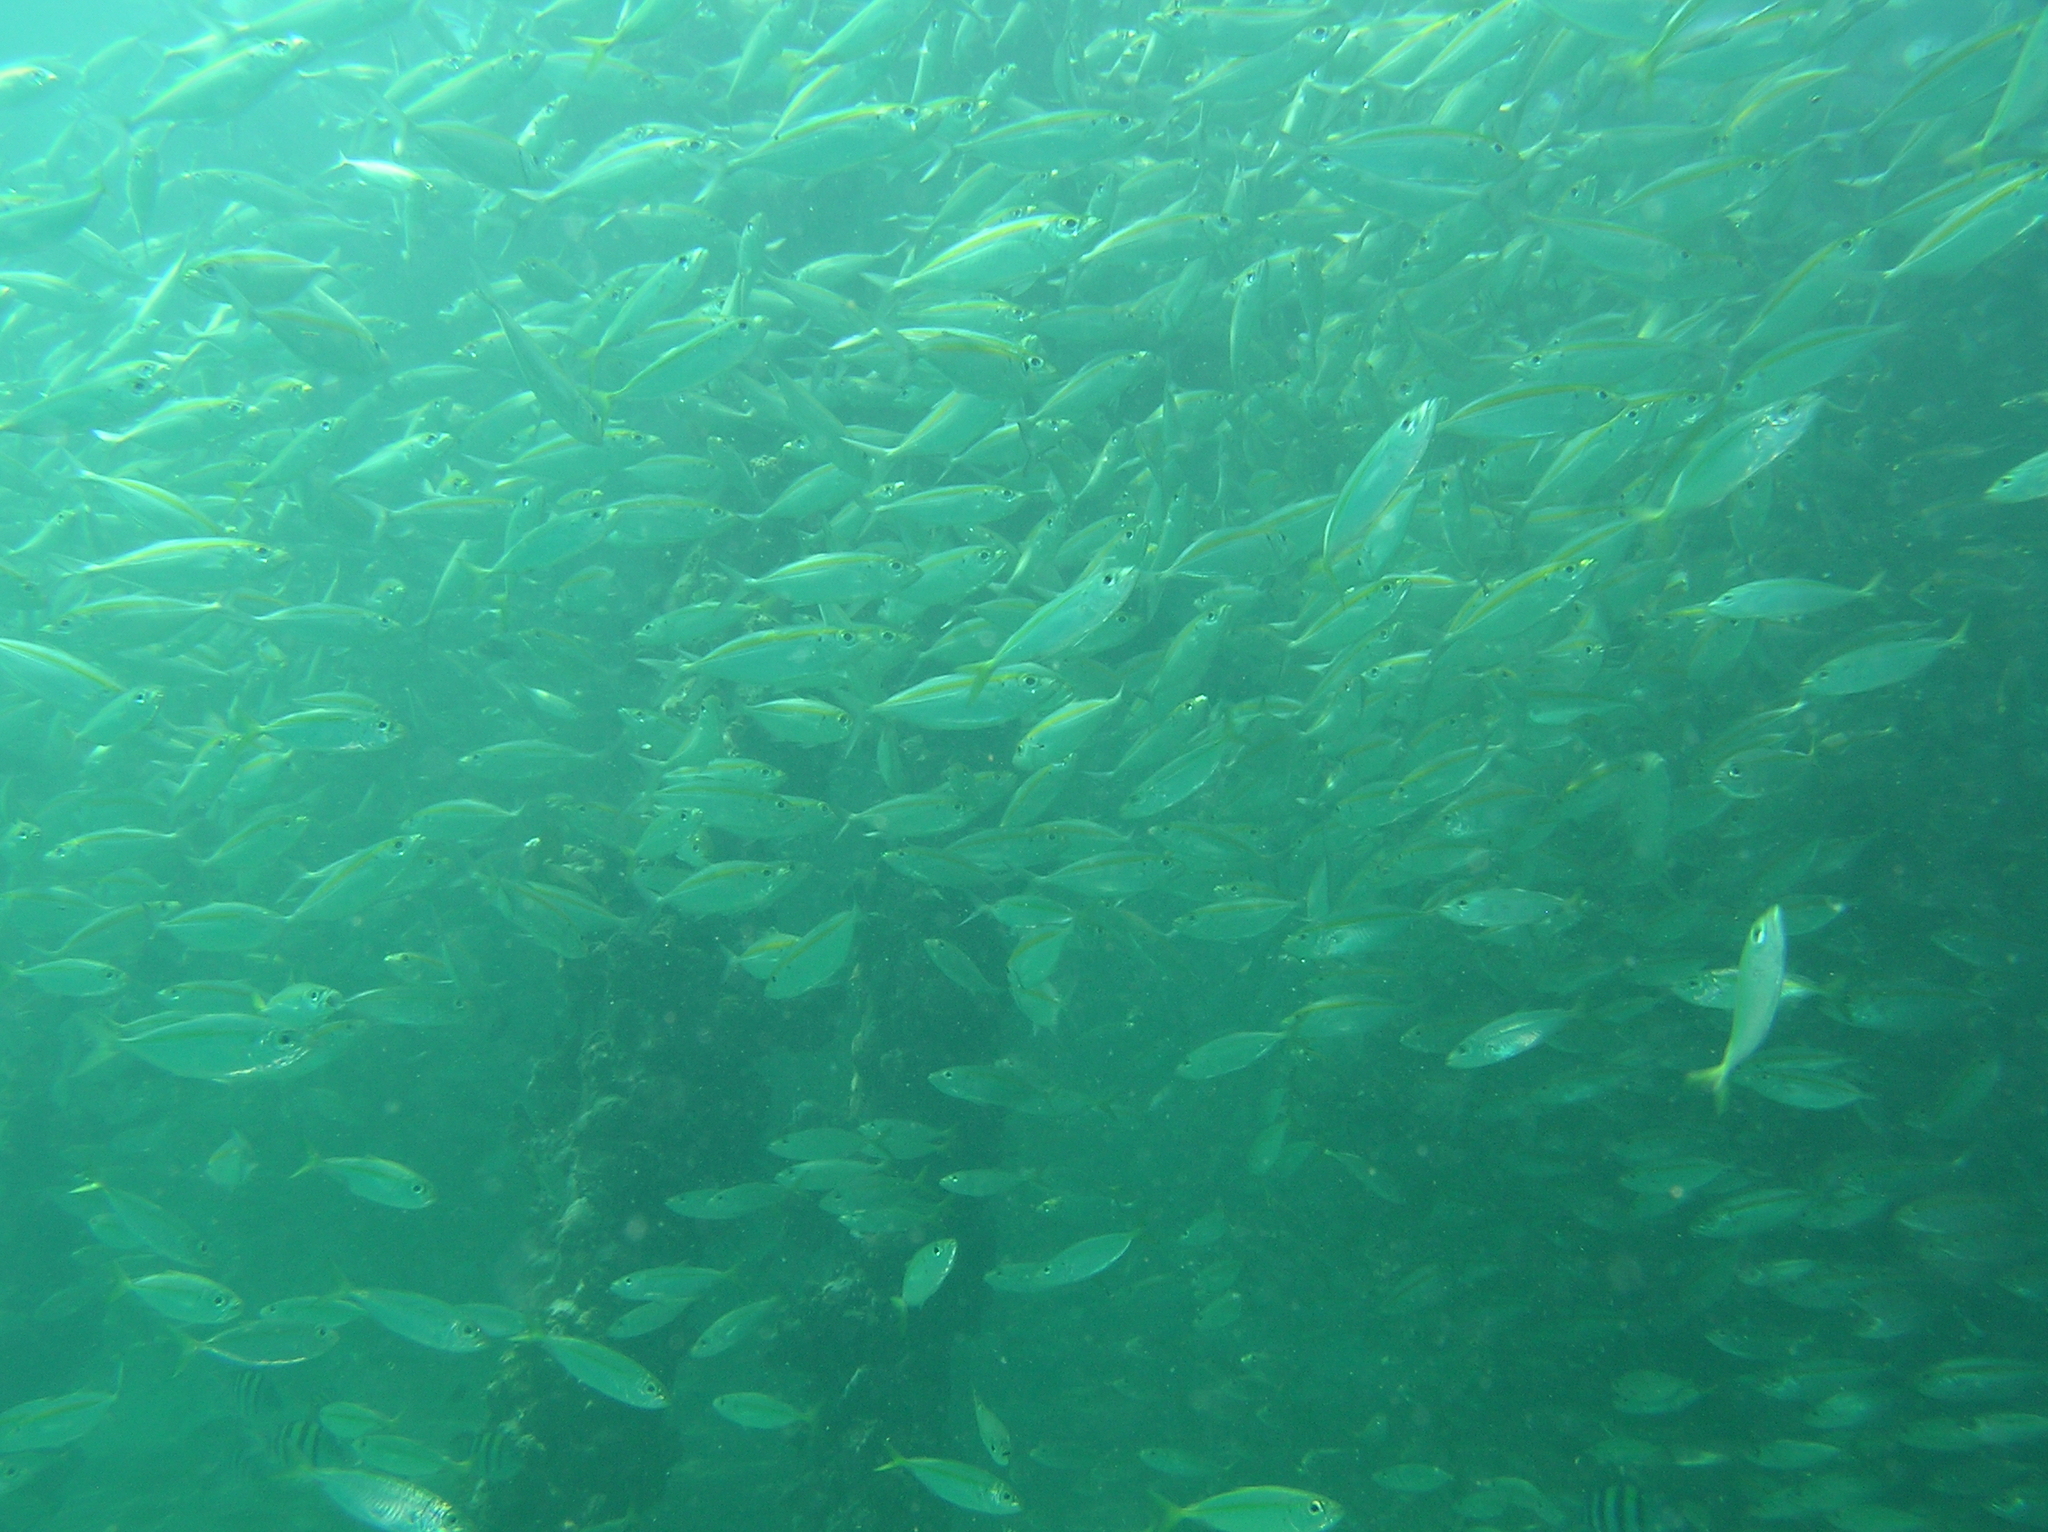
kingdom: Animalia
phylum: Chordata
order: Perciformes
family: Carangidae
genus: Selar
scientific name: Selar boops
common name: Oxeye scad
